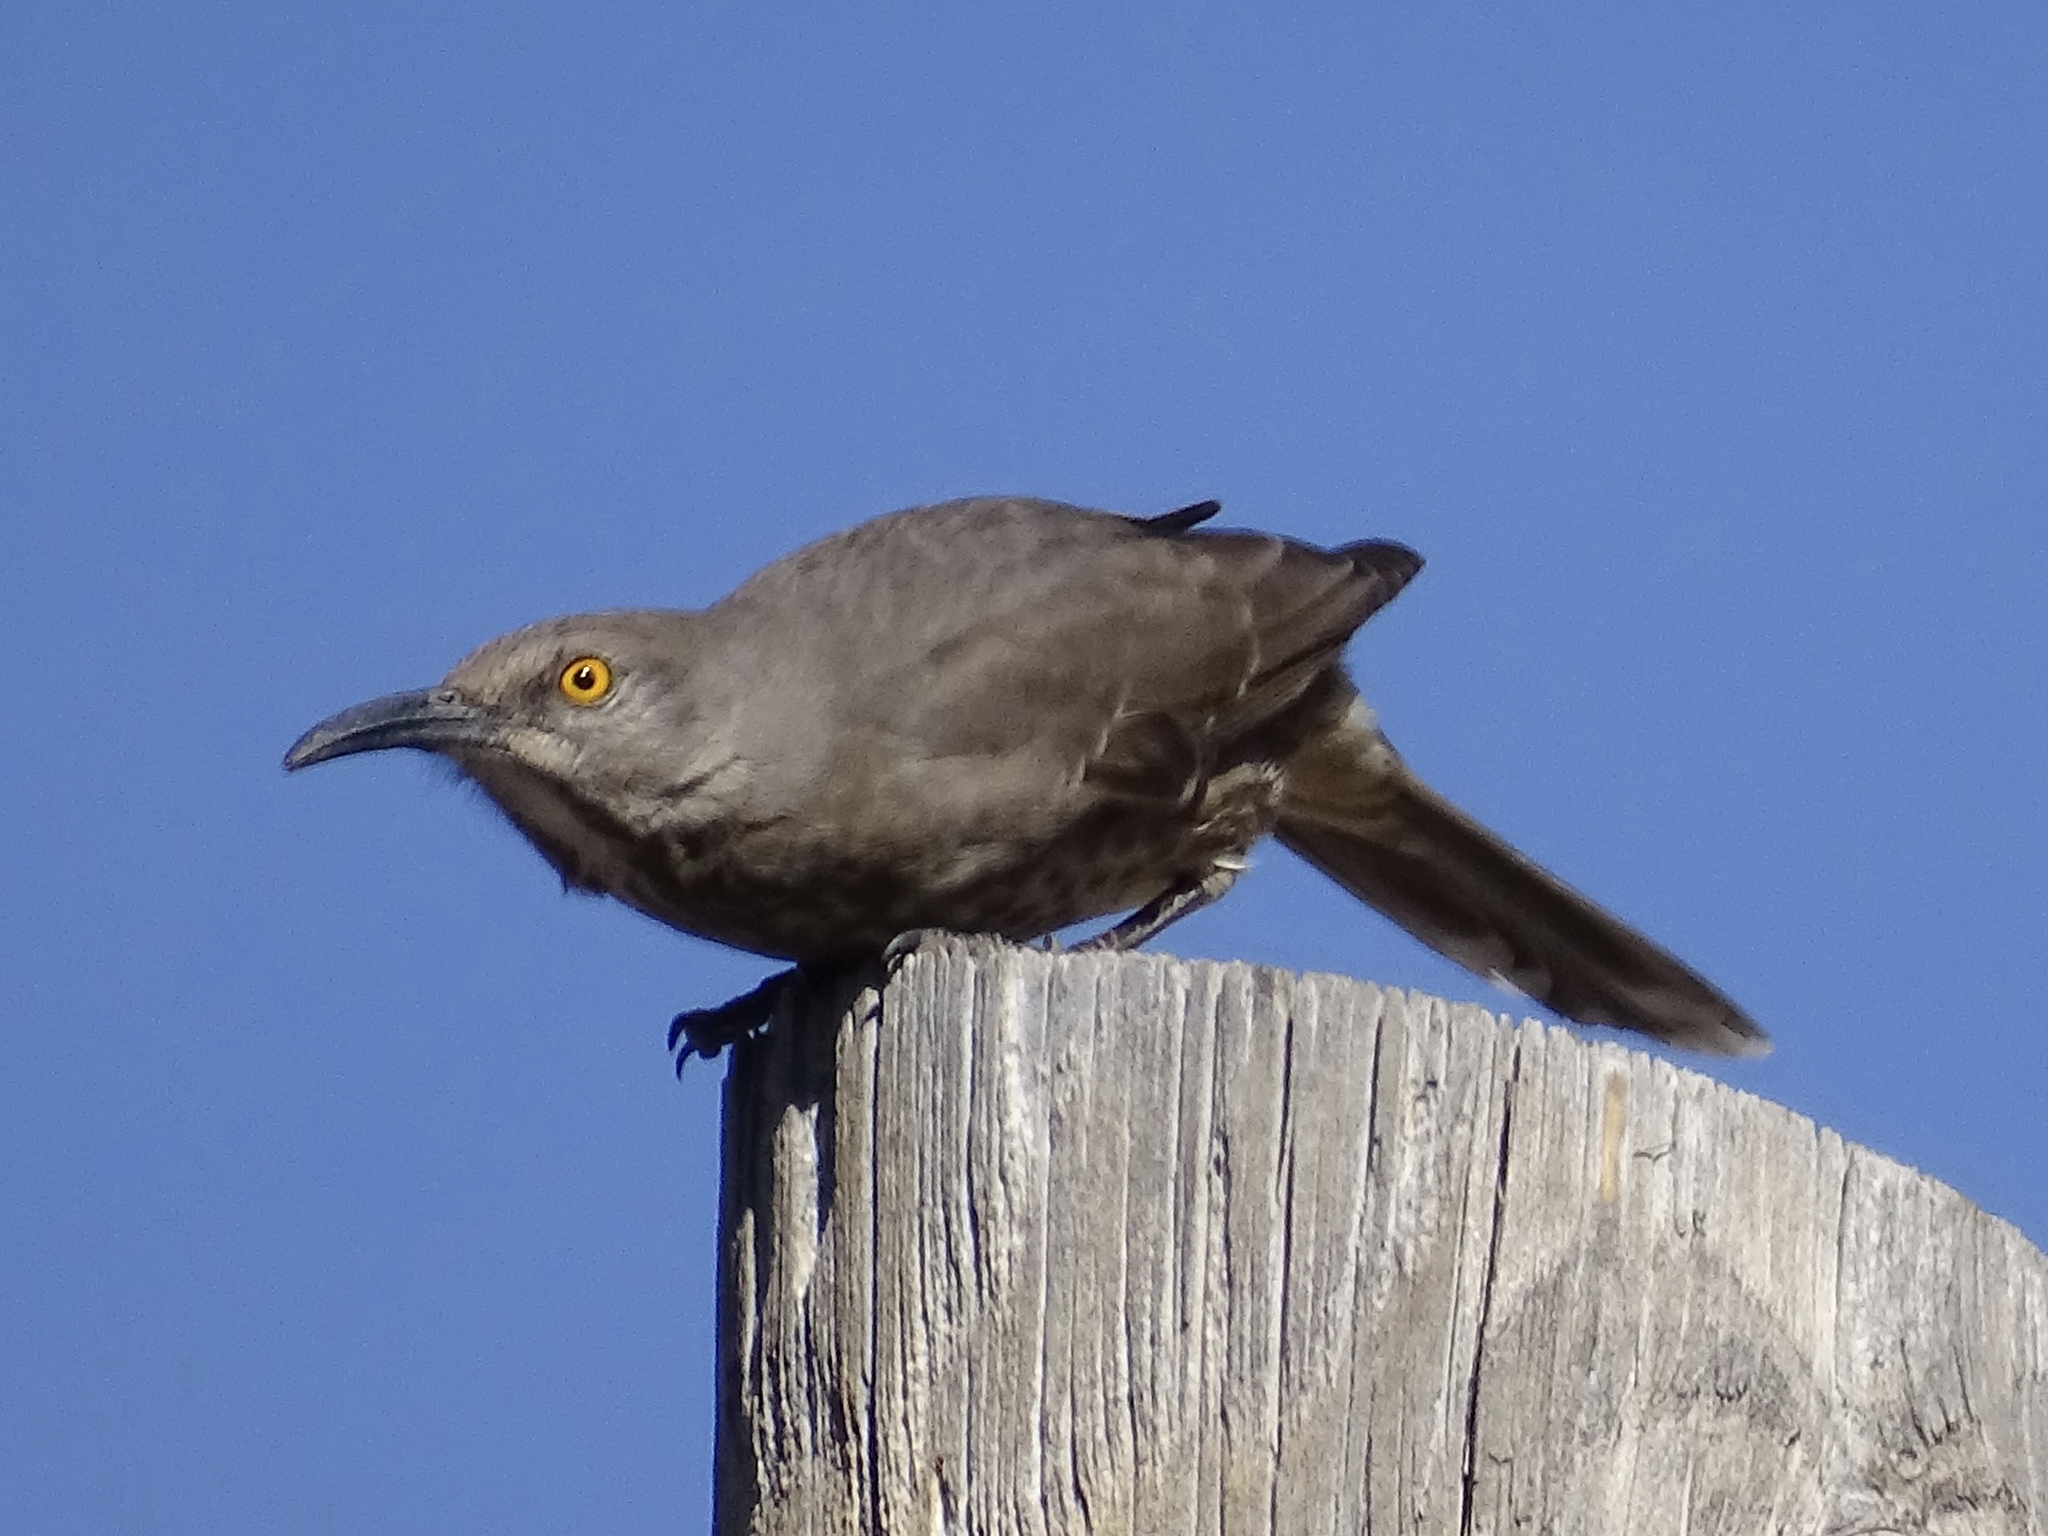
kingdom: Animalia
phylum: Chordata
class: Aves
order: Passeriformes
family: Mimidae
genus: Toxostoma
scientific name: Toxostoma curvirostre
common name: Curve-billed thrasher
